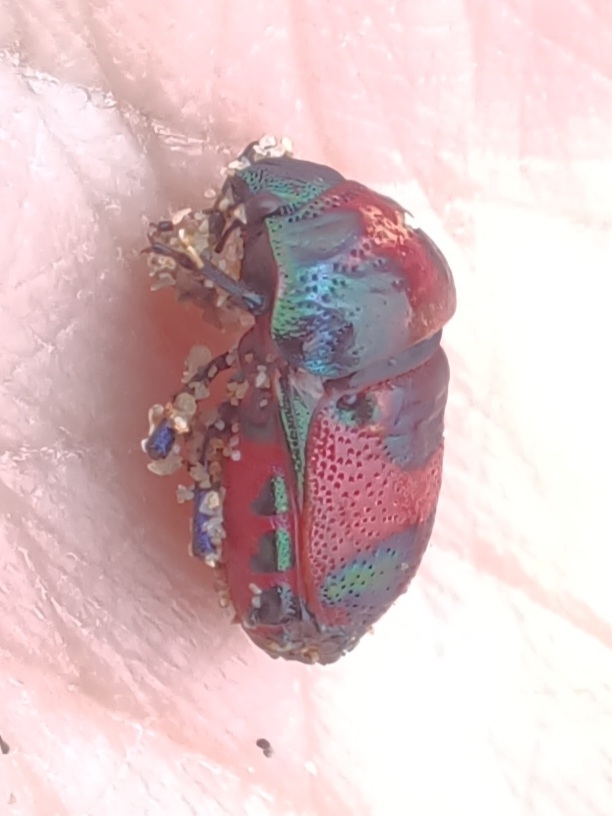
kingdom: Animalia
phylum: Arthropoda
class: Insecta
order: Hemiptera
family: Scutelleridae
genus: Choerocoris
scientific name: Choerocoris paganus
